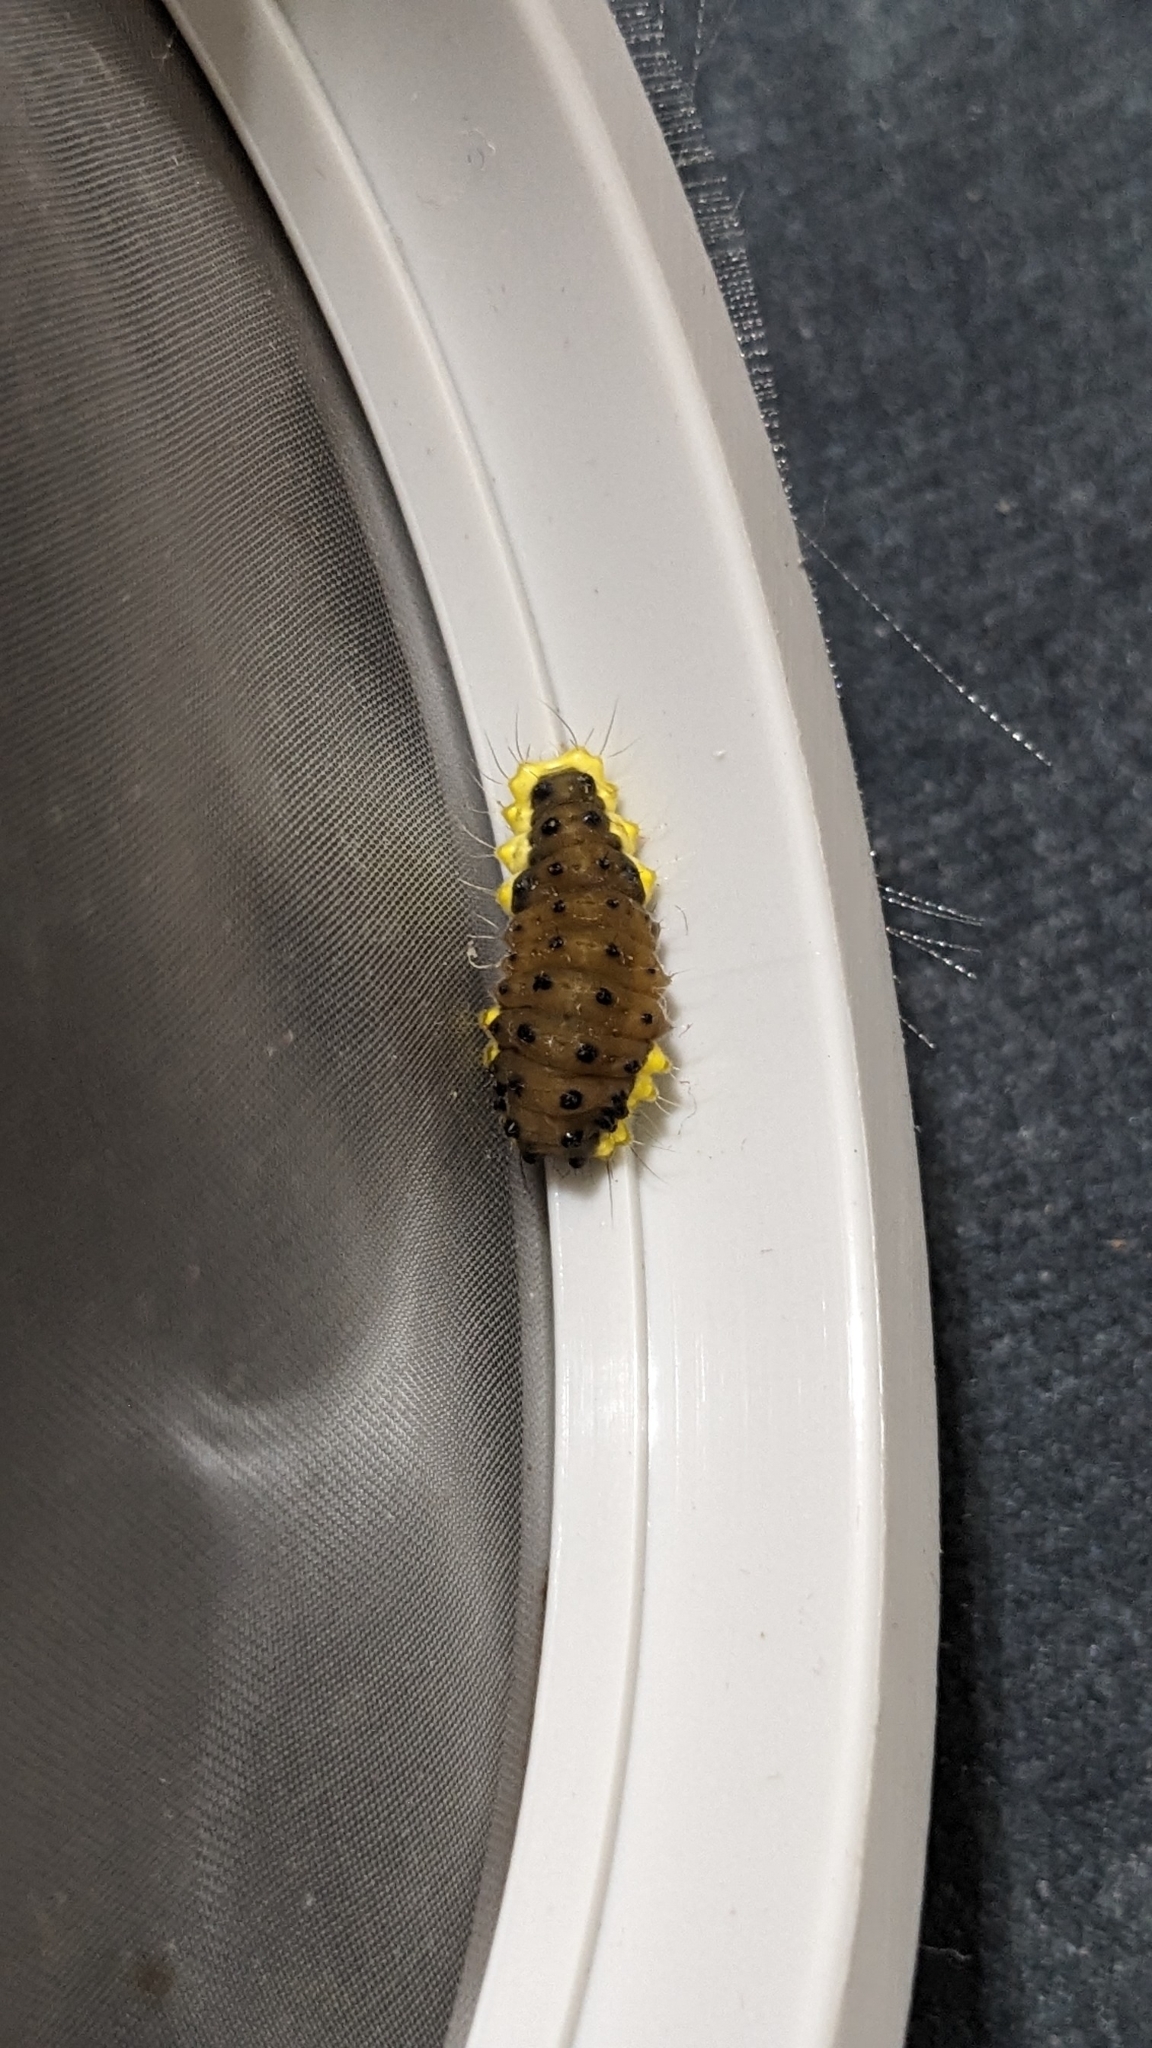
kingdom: Animalia
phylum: Arthropoda
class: Insecta
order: Lepidoptera
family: Zygaenidae
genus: Gynautocera
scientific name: Gynautocera rubriscutellata
